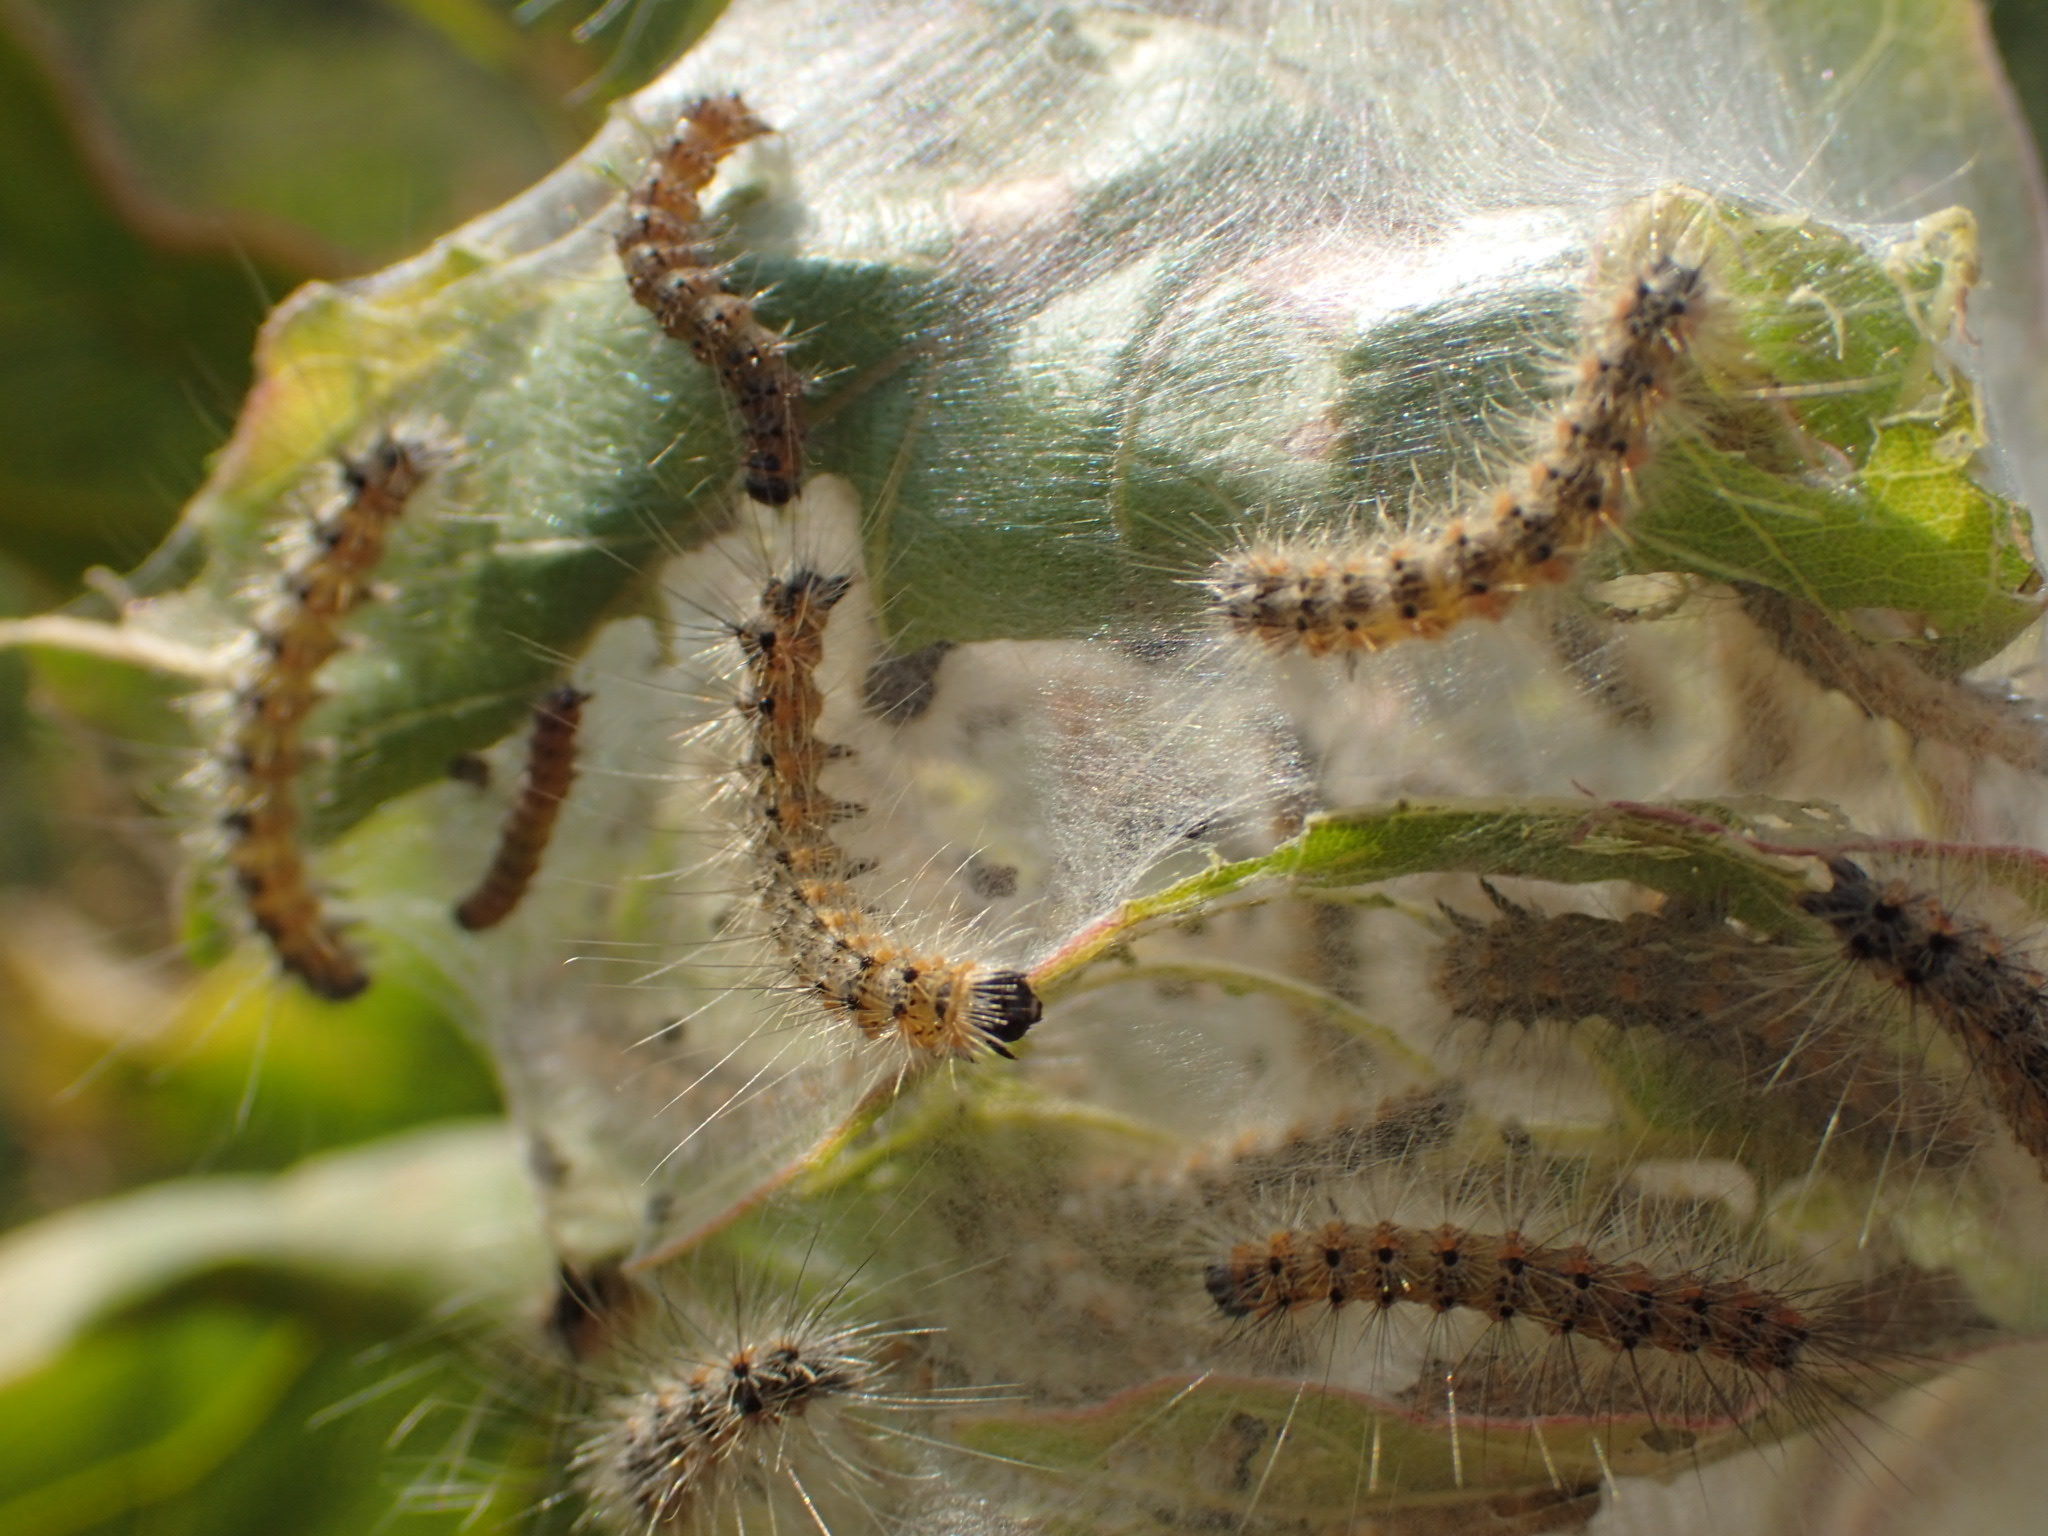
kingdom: Animalia
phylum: Arthropoda
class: Insecta
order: Lepidoptera
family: Erebidae
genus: Hyphantria
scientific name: Hyphantria cunea
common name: American white moth
